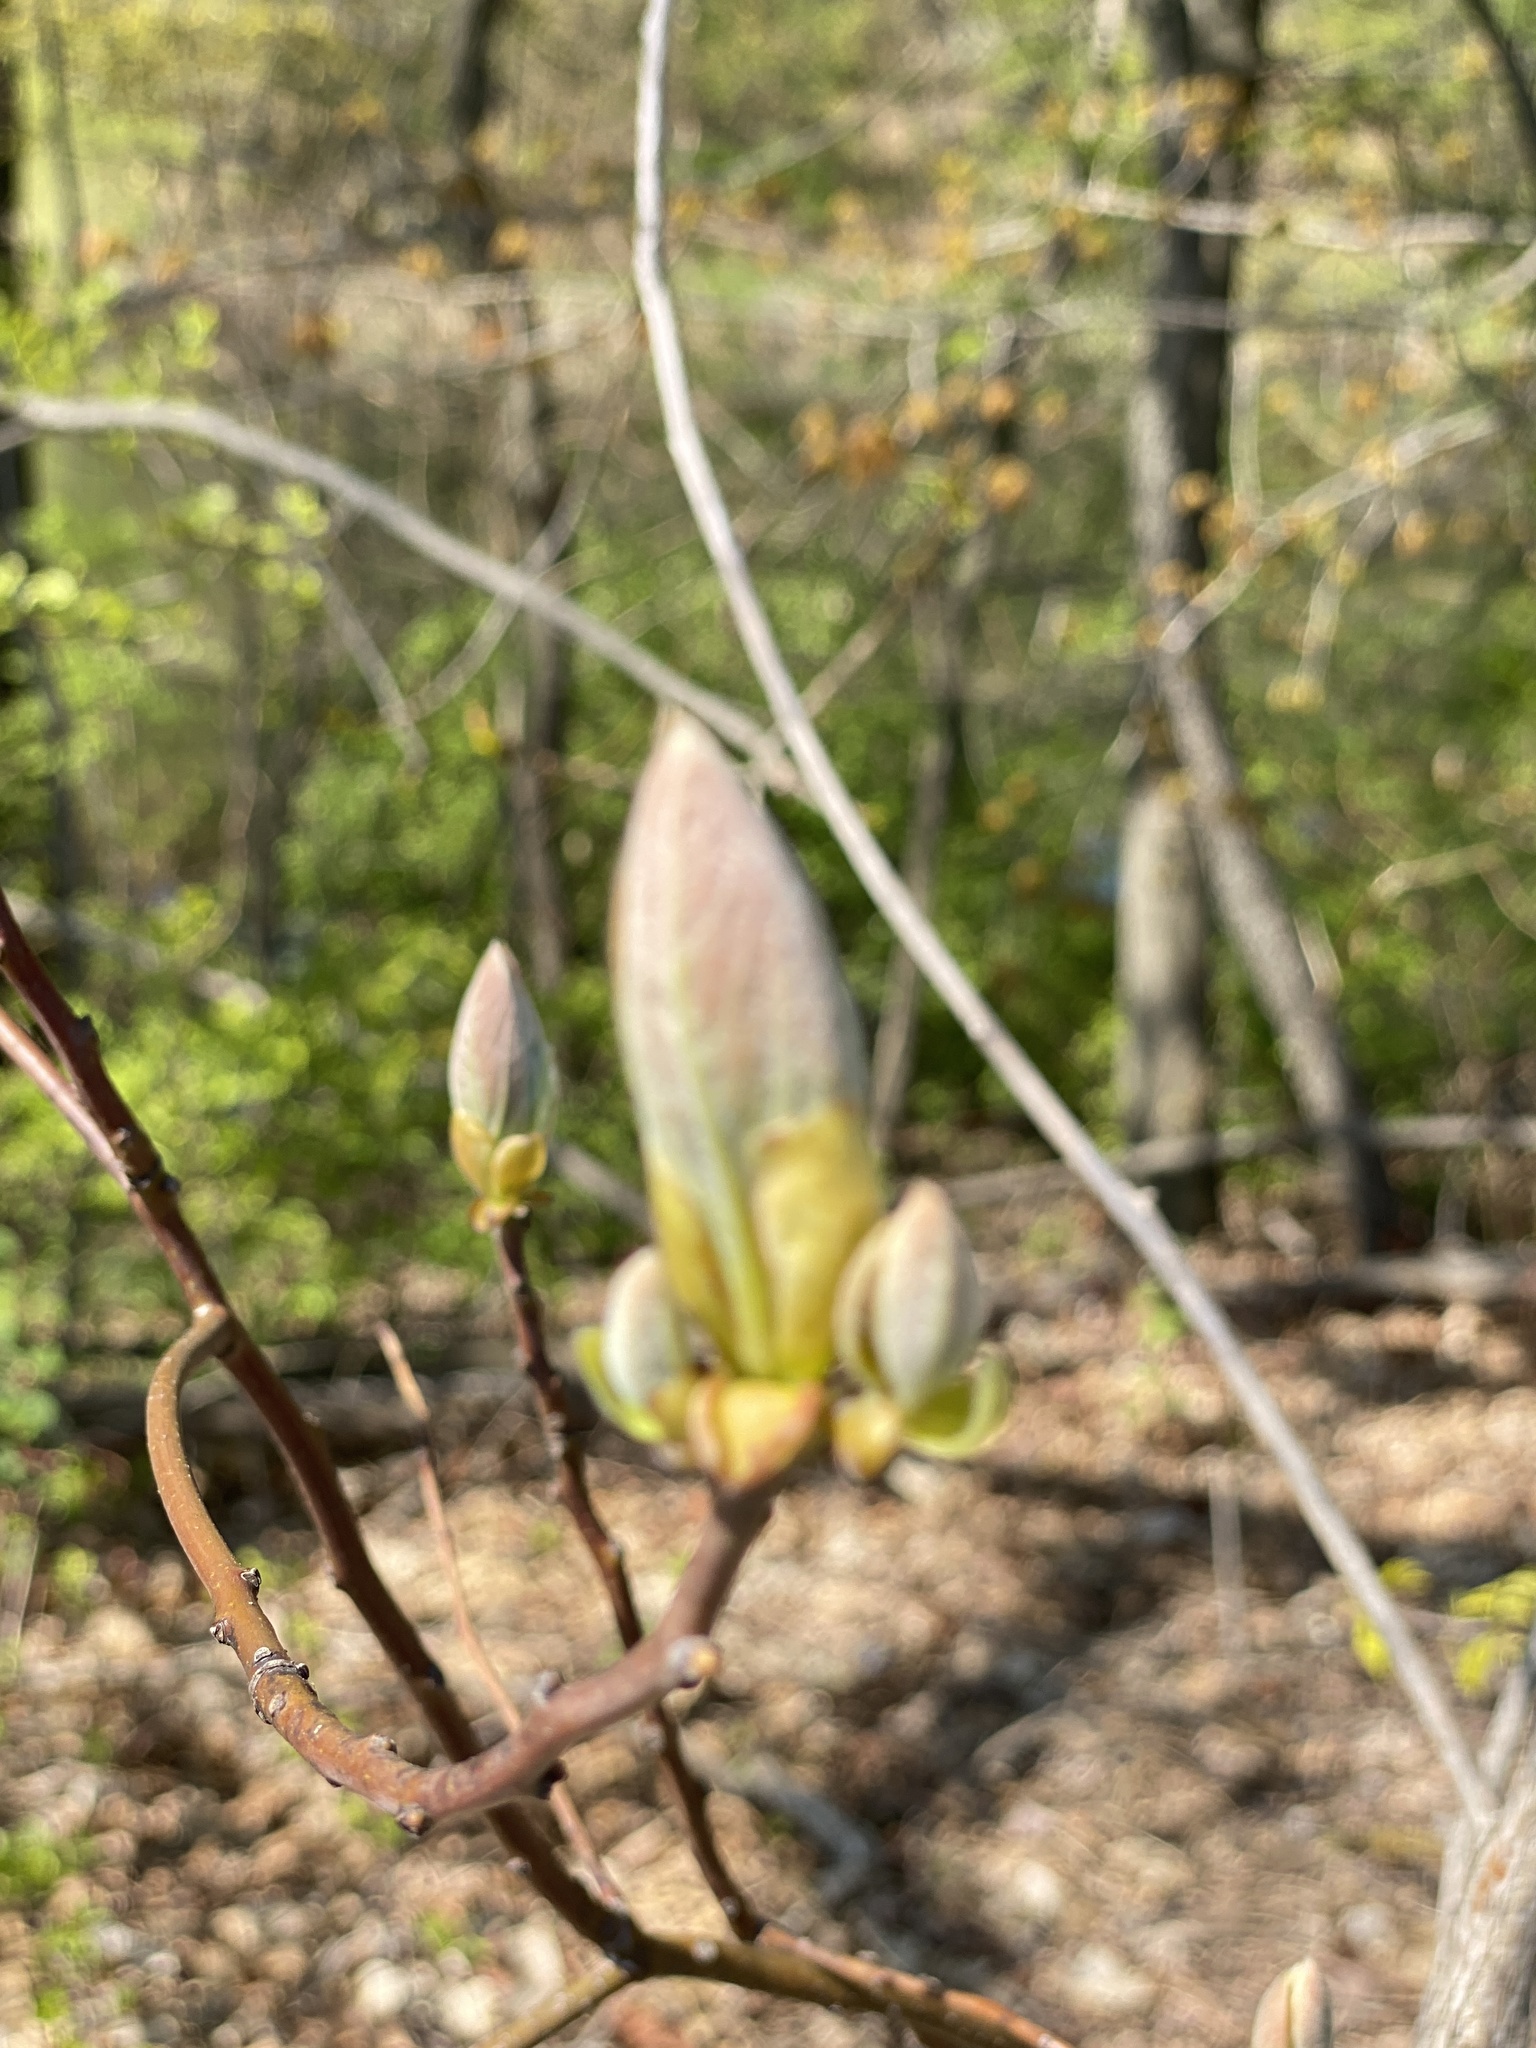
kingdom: Plantae
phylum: Tracheophyta
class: Magnoliopsida
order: Laurales
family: Lauraceae
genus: Sassafras
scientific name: Sassafras albidum
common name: Sassafras
